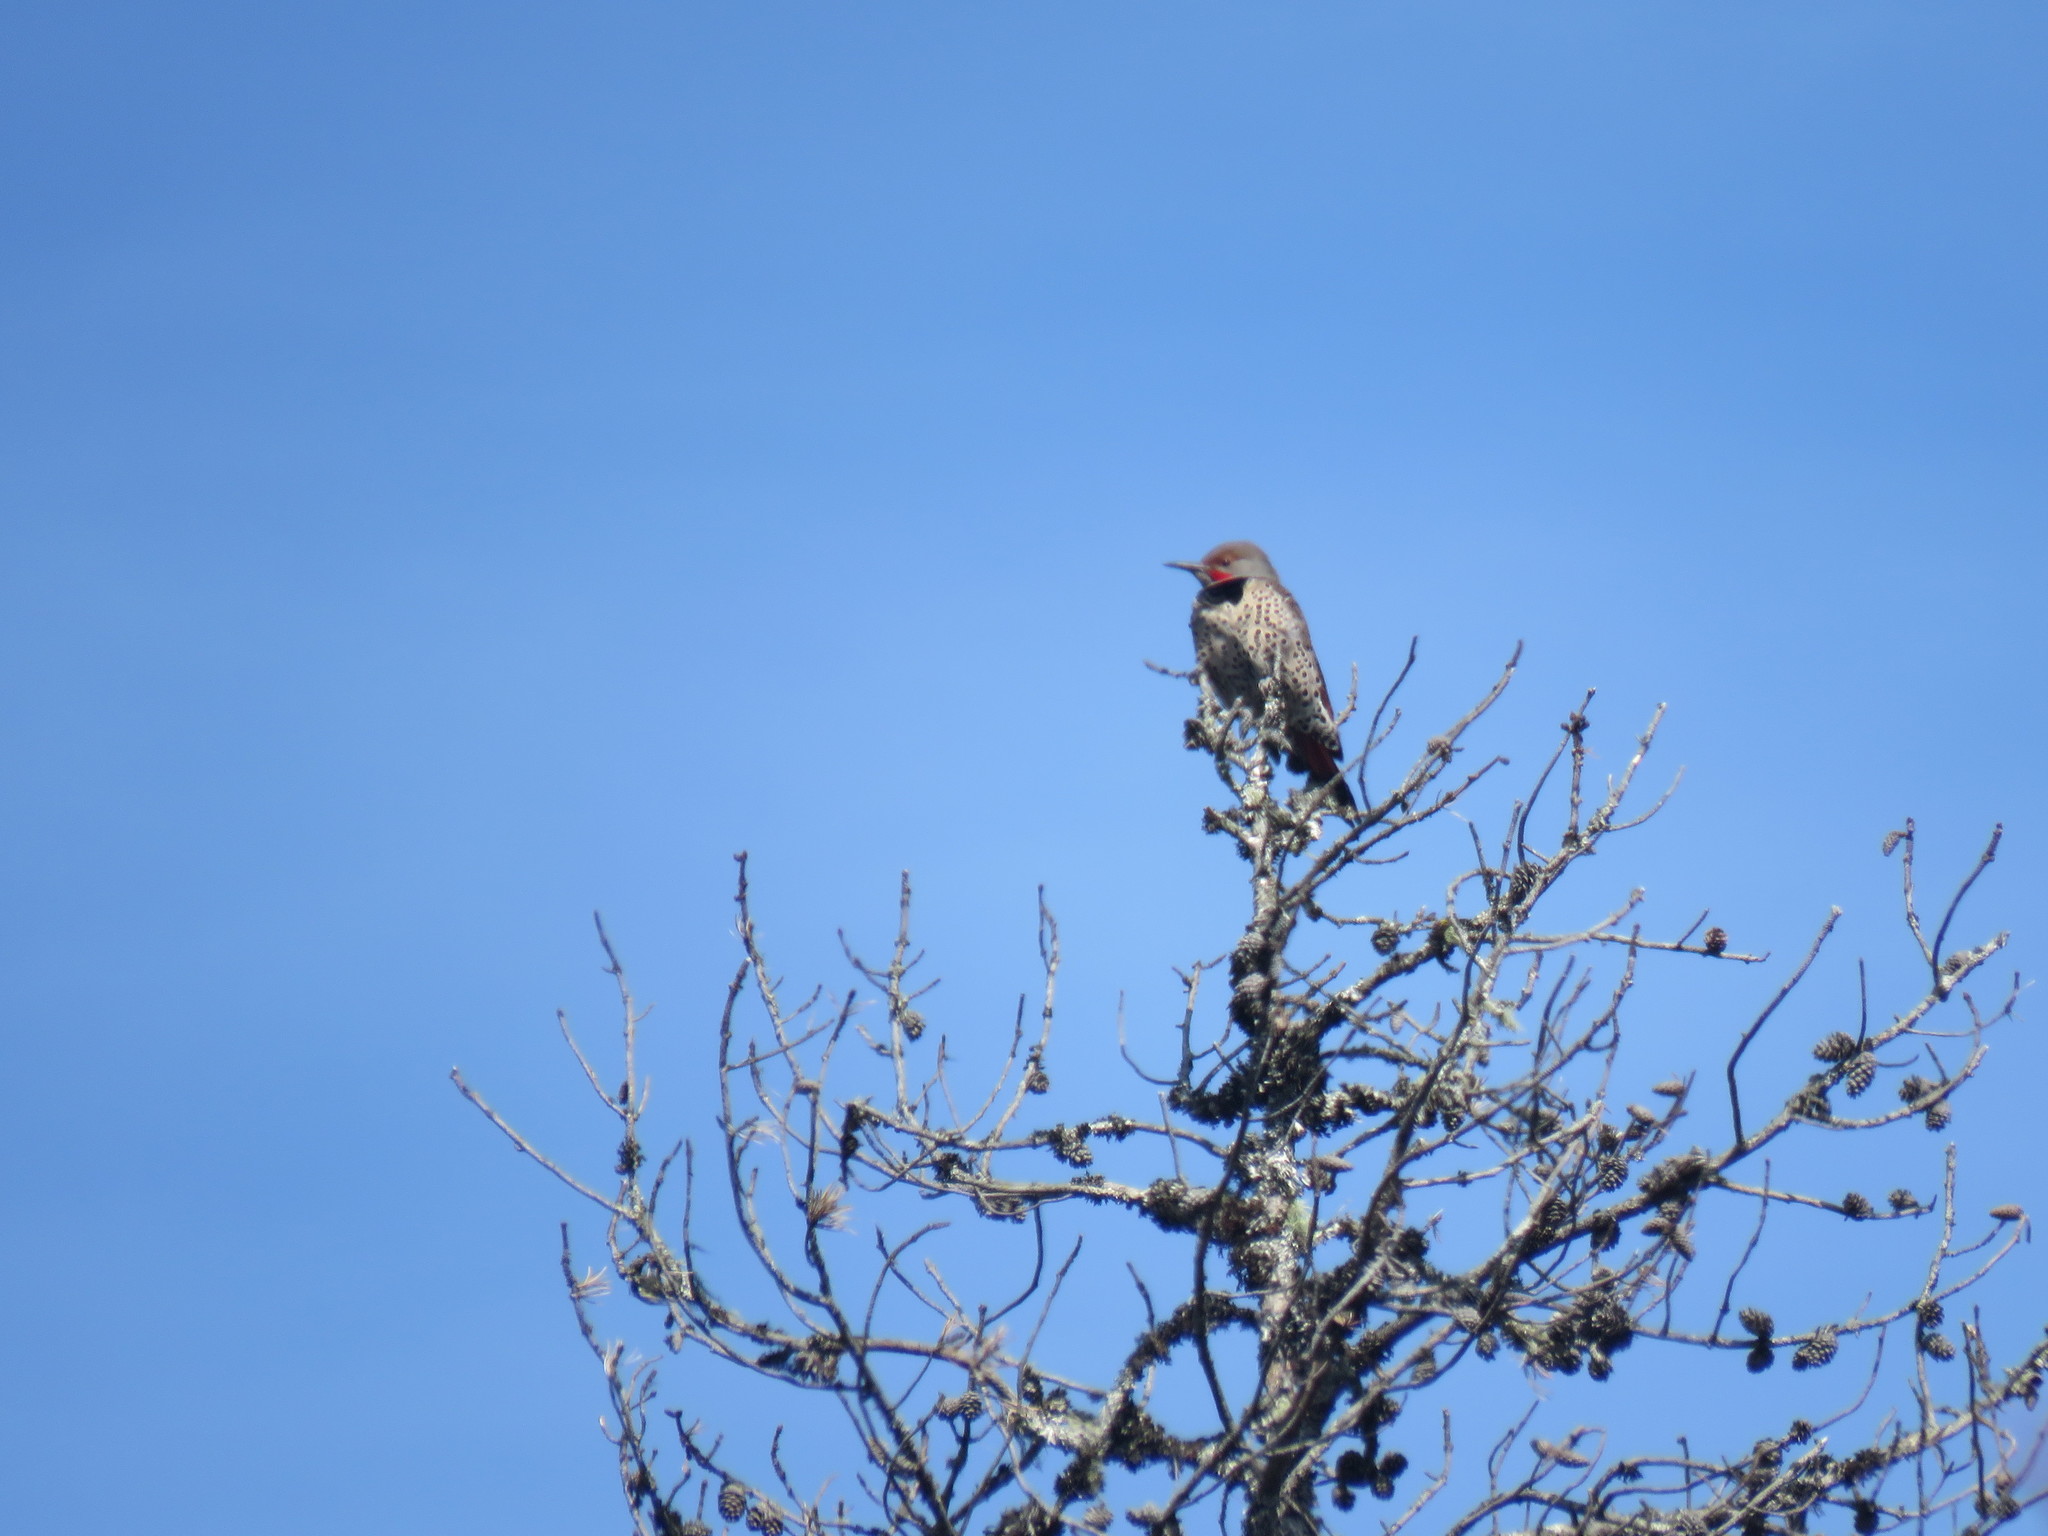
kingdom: Animalia
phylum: Chordata
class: Aves
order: Piciformes
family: Picidae
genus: Colaptes
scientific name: Colaptes auratus
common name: Northern flicker
